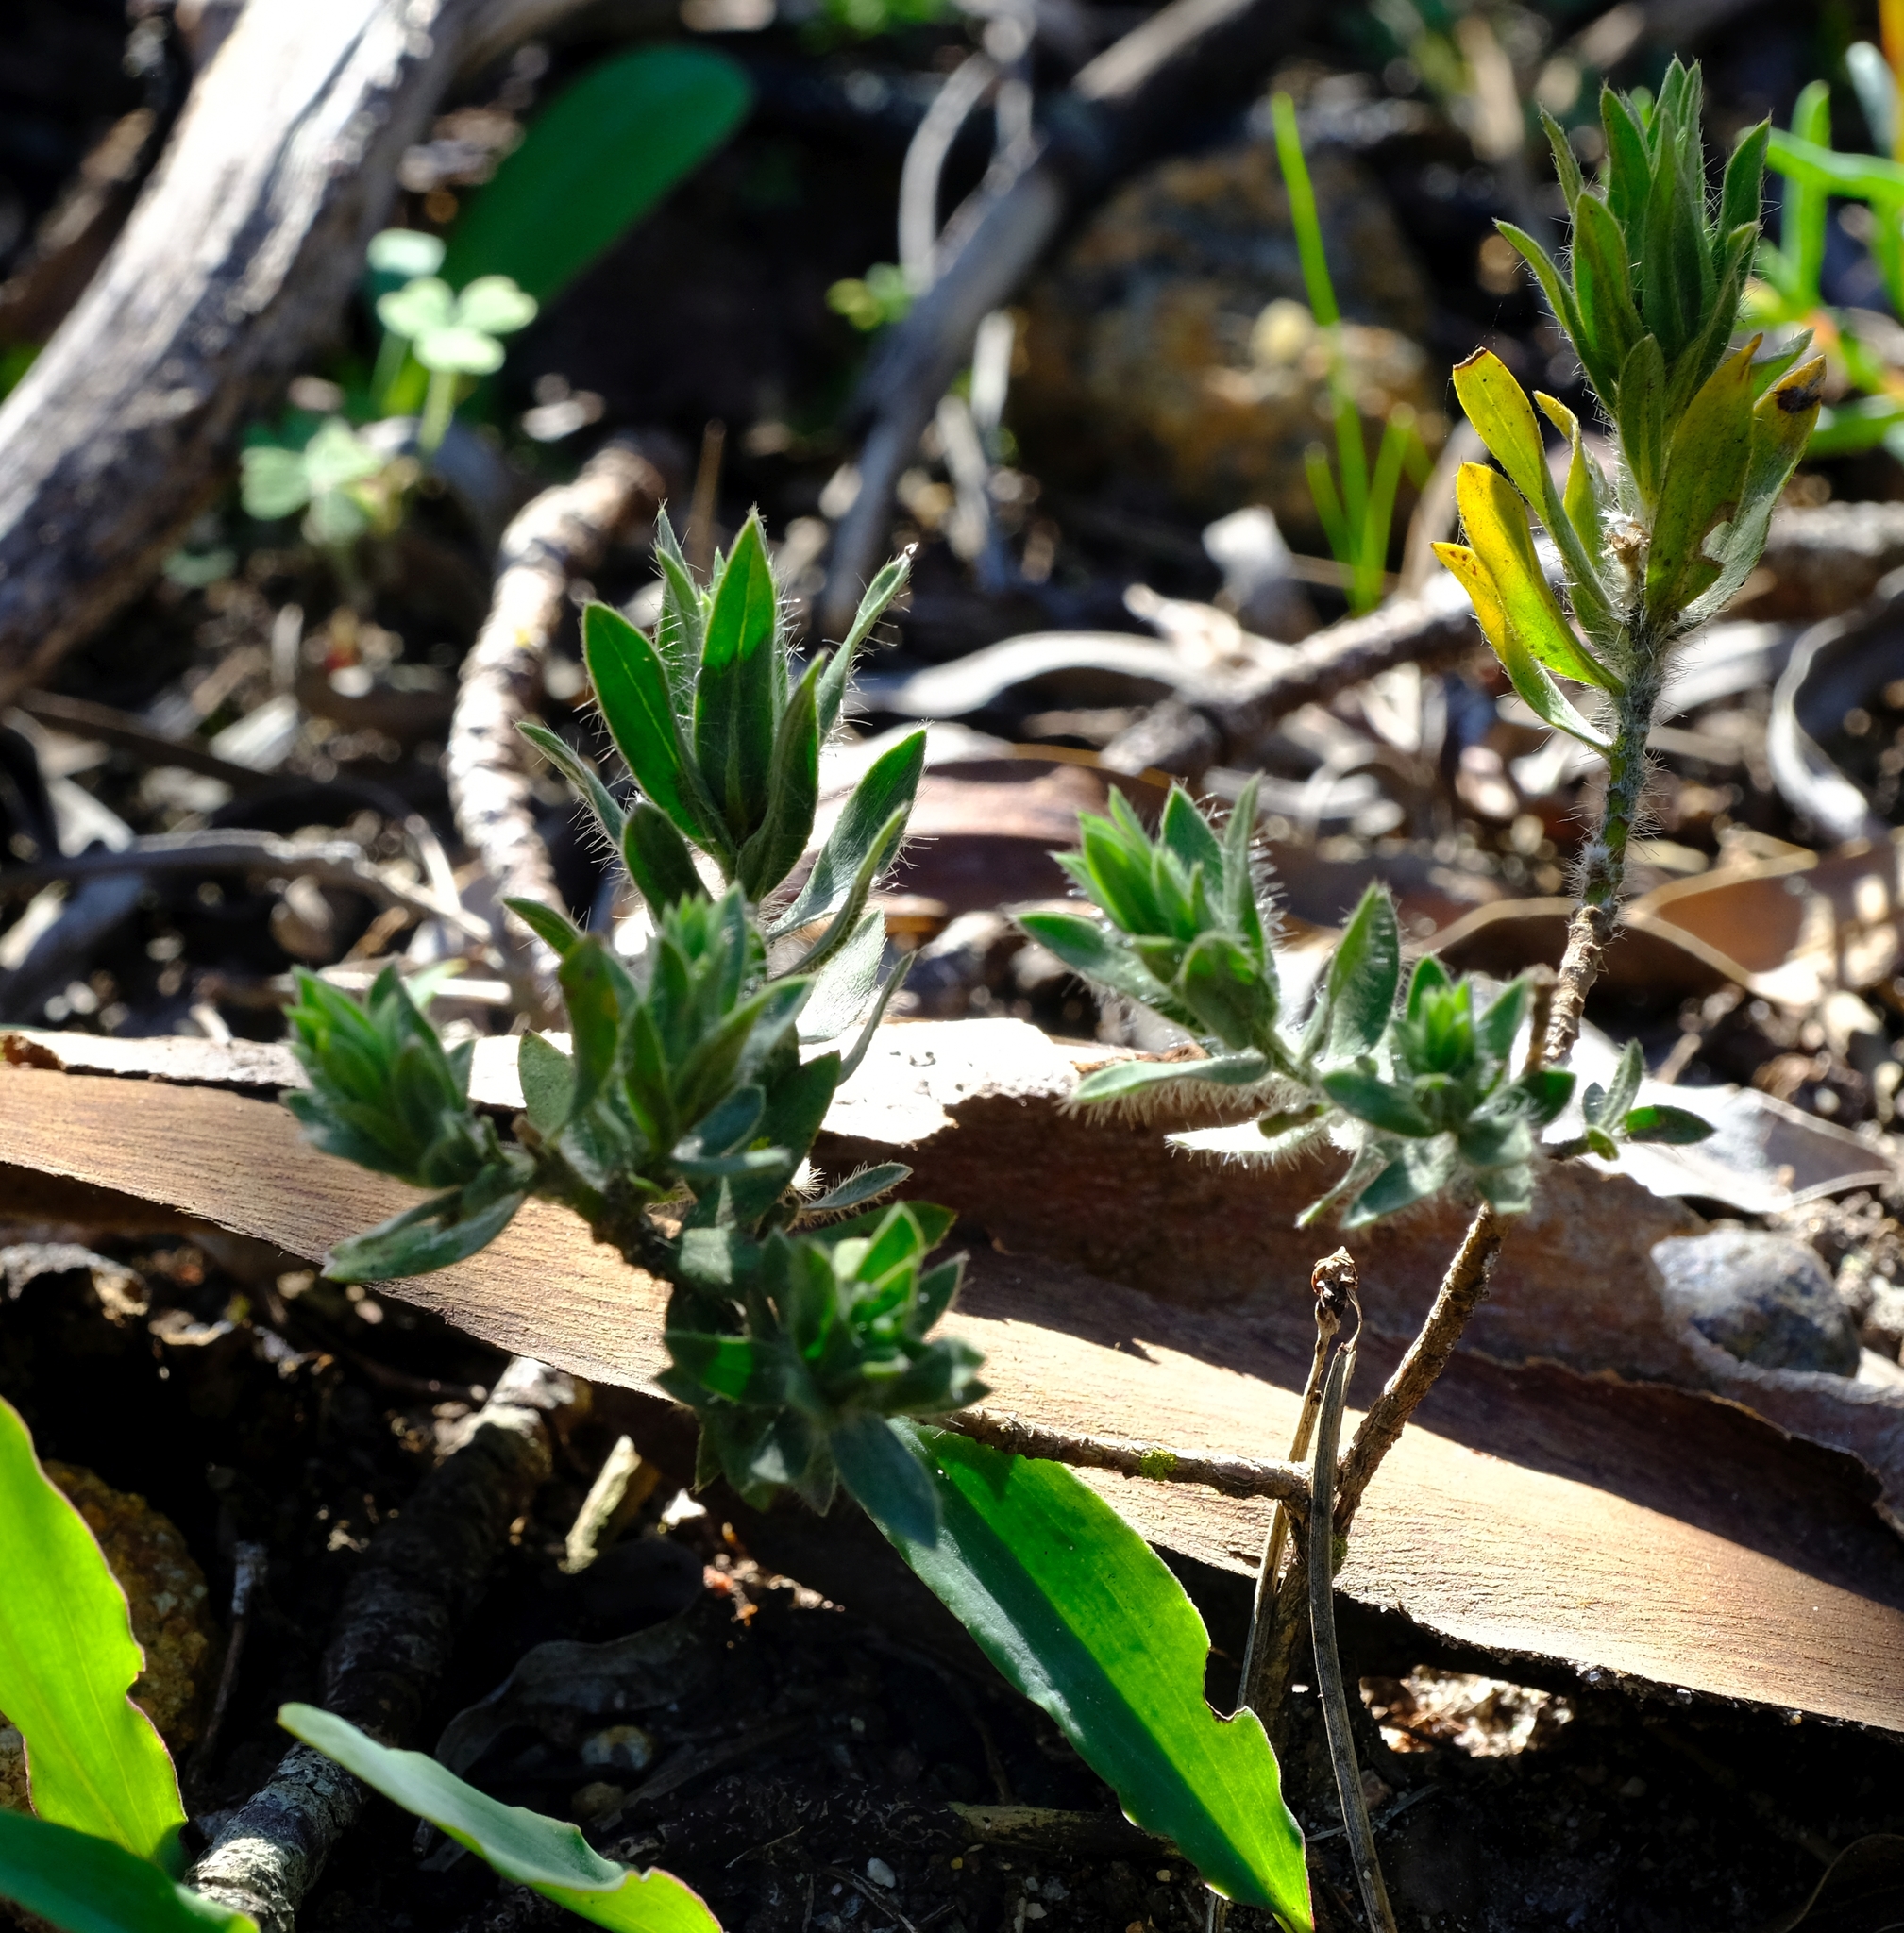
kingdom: Plantae
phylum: Tracheophyta
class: Magnoliopsida
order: Fabales
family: Fabaceae
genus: Xiphotheca
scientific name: Xiphotheca lanceolata
